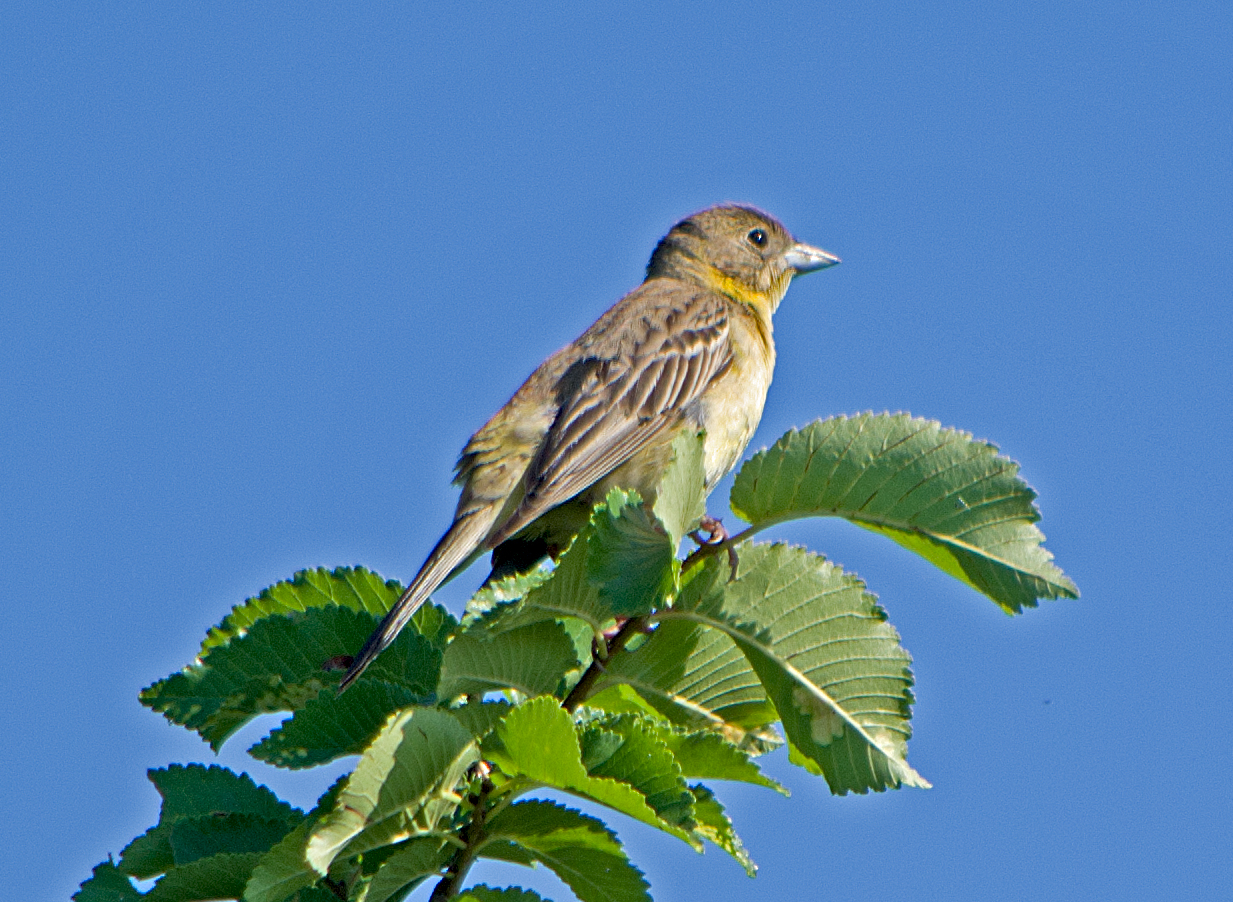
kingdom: Animalia
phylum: Chordata
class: Aves
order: Passeriformes
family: Emberizidae
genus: Emberiza
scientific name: Emberiza melanocephala
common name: Black-headed bunting
